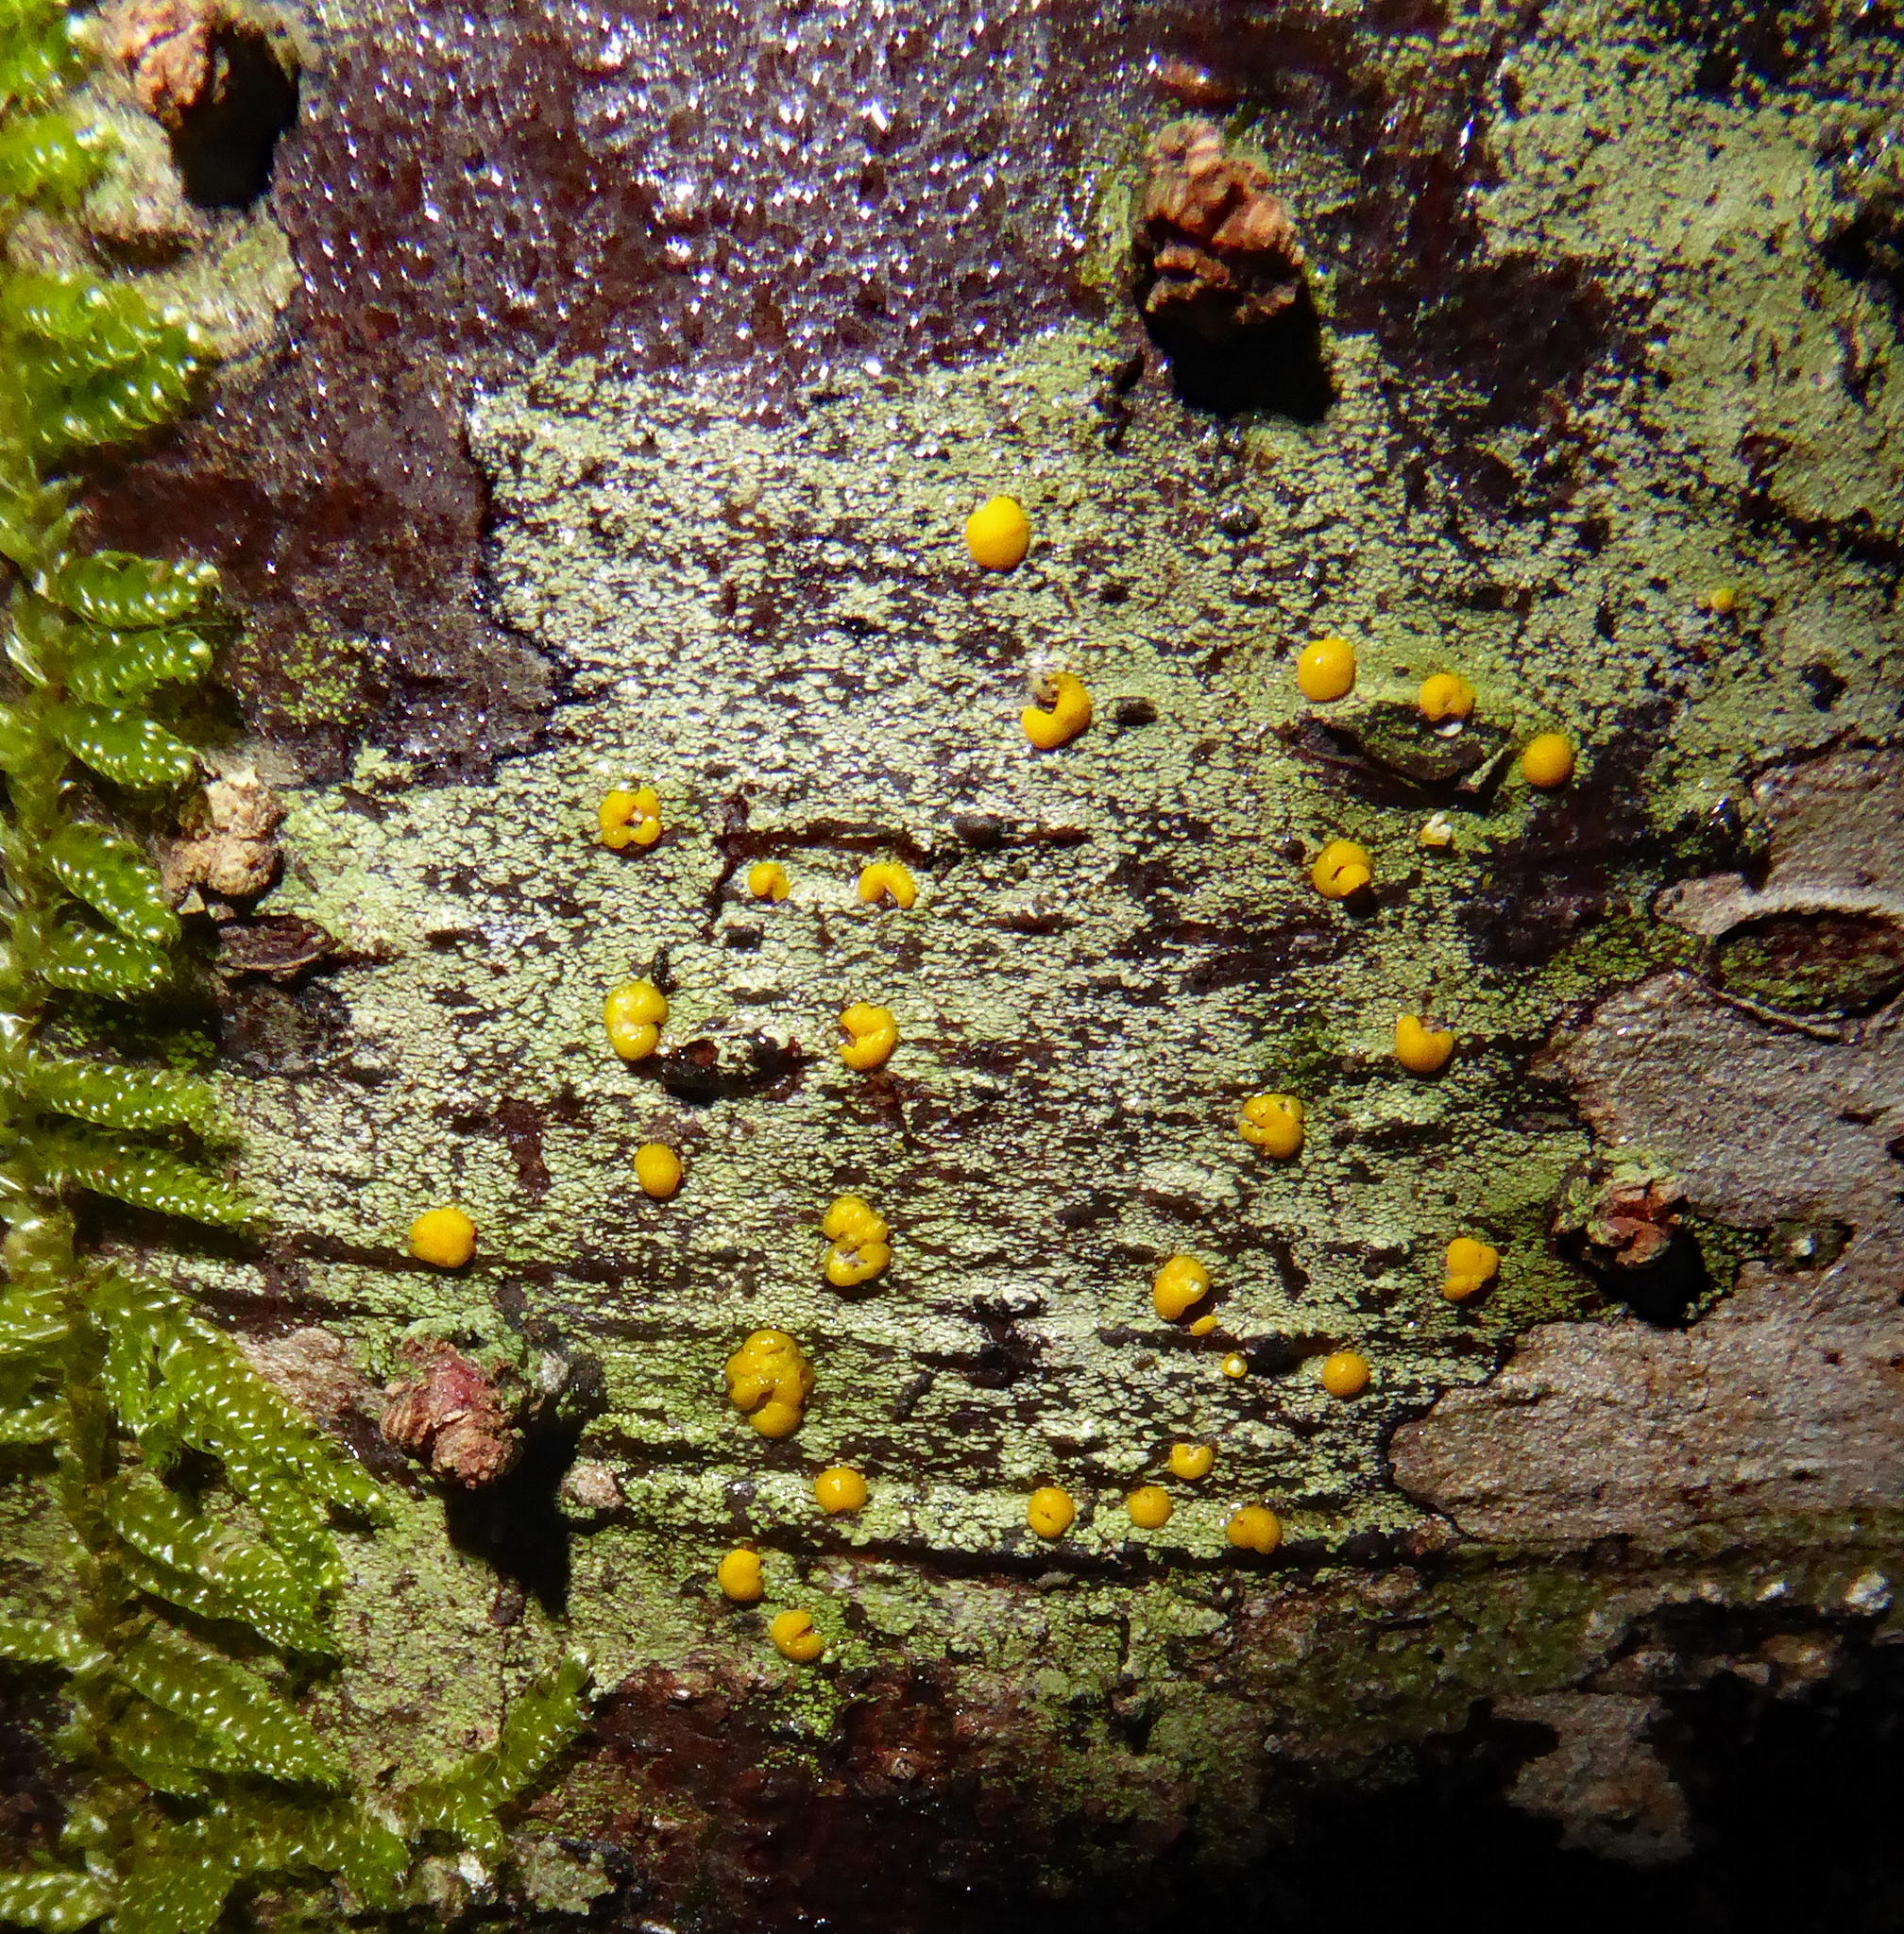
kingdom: Fungi
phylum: Ascomycota
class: Lecanoromycetes
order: Lecanorales
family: Ramalinaceae
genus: Stirtoniella
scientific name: Stirtoniella kelica
